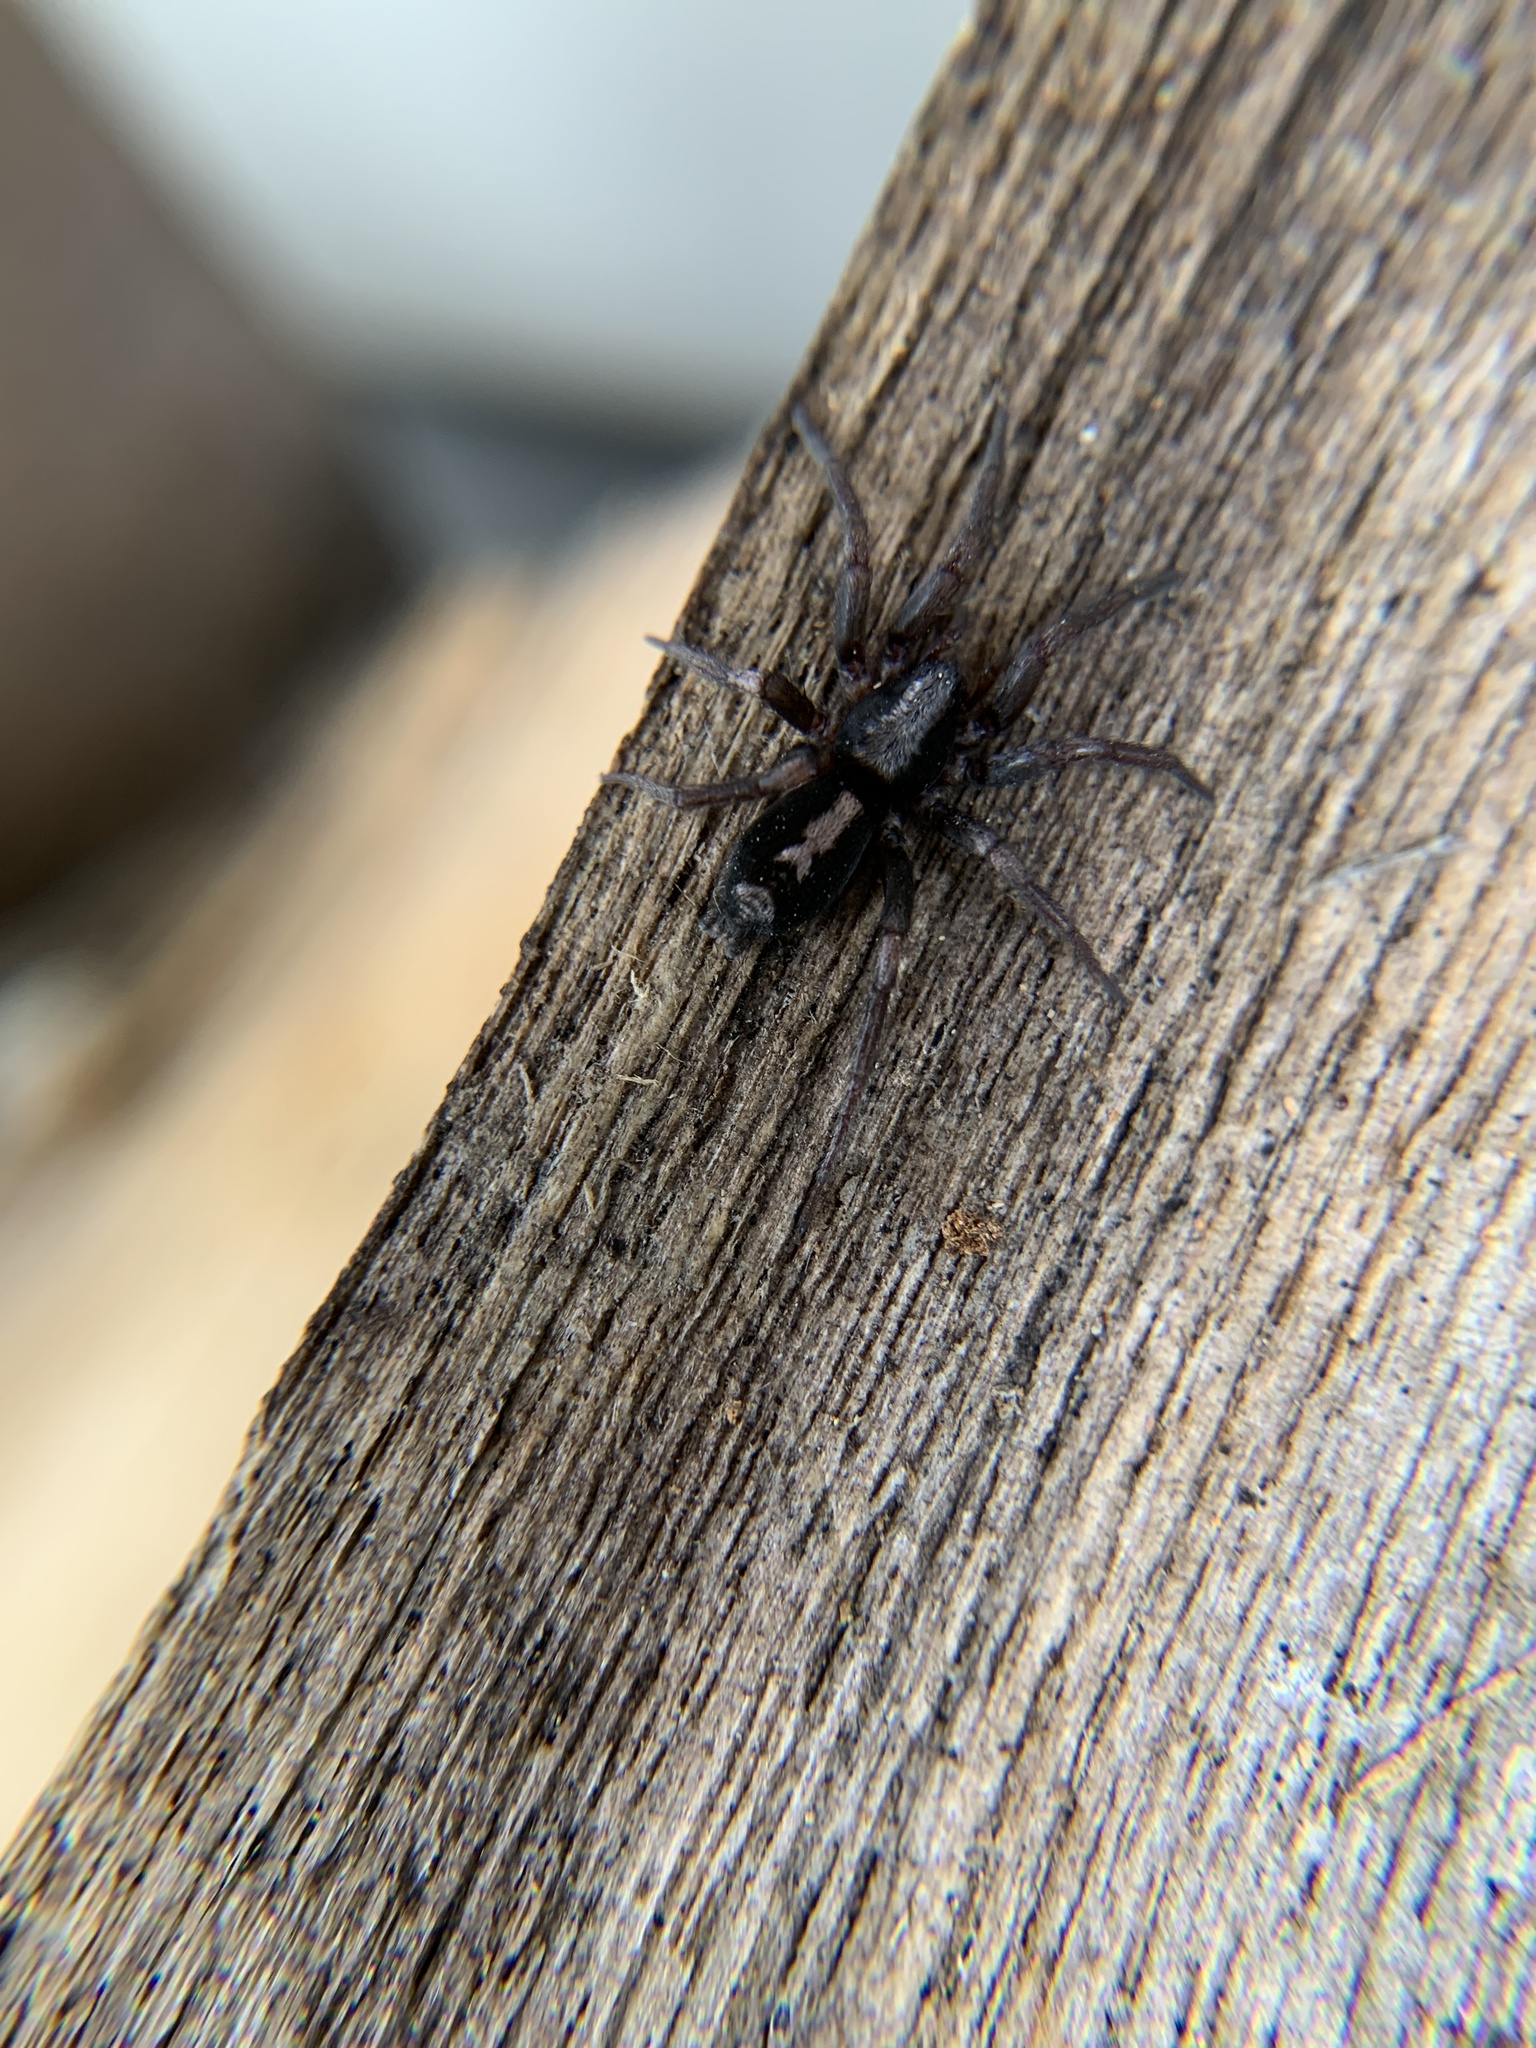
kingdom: Animalia
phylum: Arthropoda
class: Arachnida
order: Araneae
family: Gnaphosidae
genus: Herpyllus
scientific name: Herpyllus ecclesiasticus
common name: Eastern parson spider
